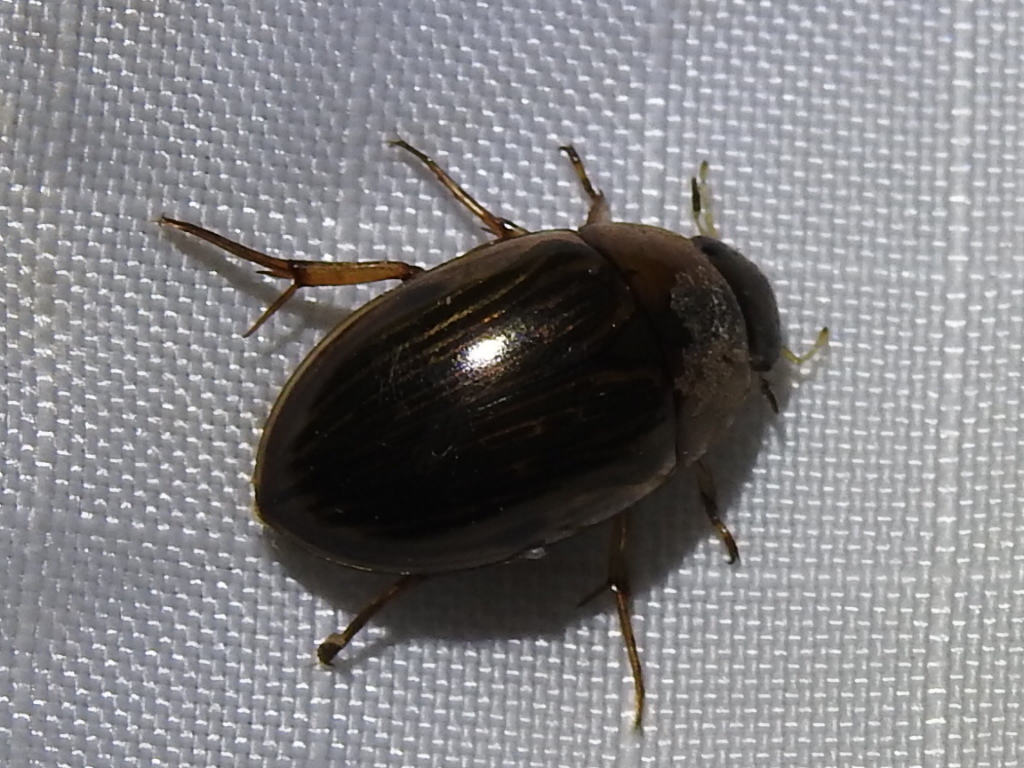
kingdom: Animalia
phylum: Arthropoda
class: Insecta
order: Coleoptera
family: Hydrophilidae
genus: Tropisternus
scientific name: Tropisternus collaris
